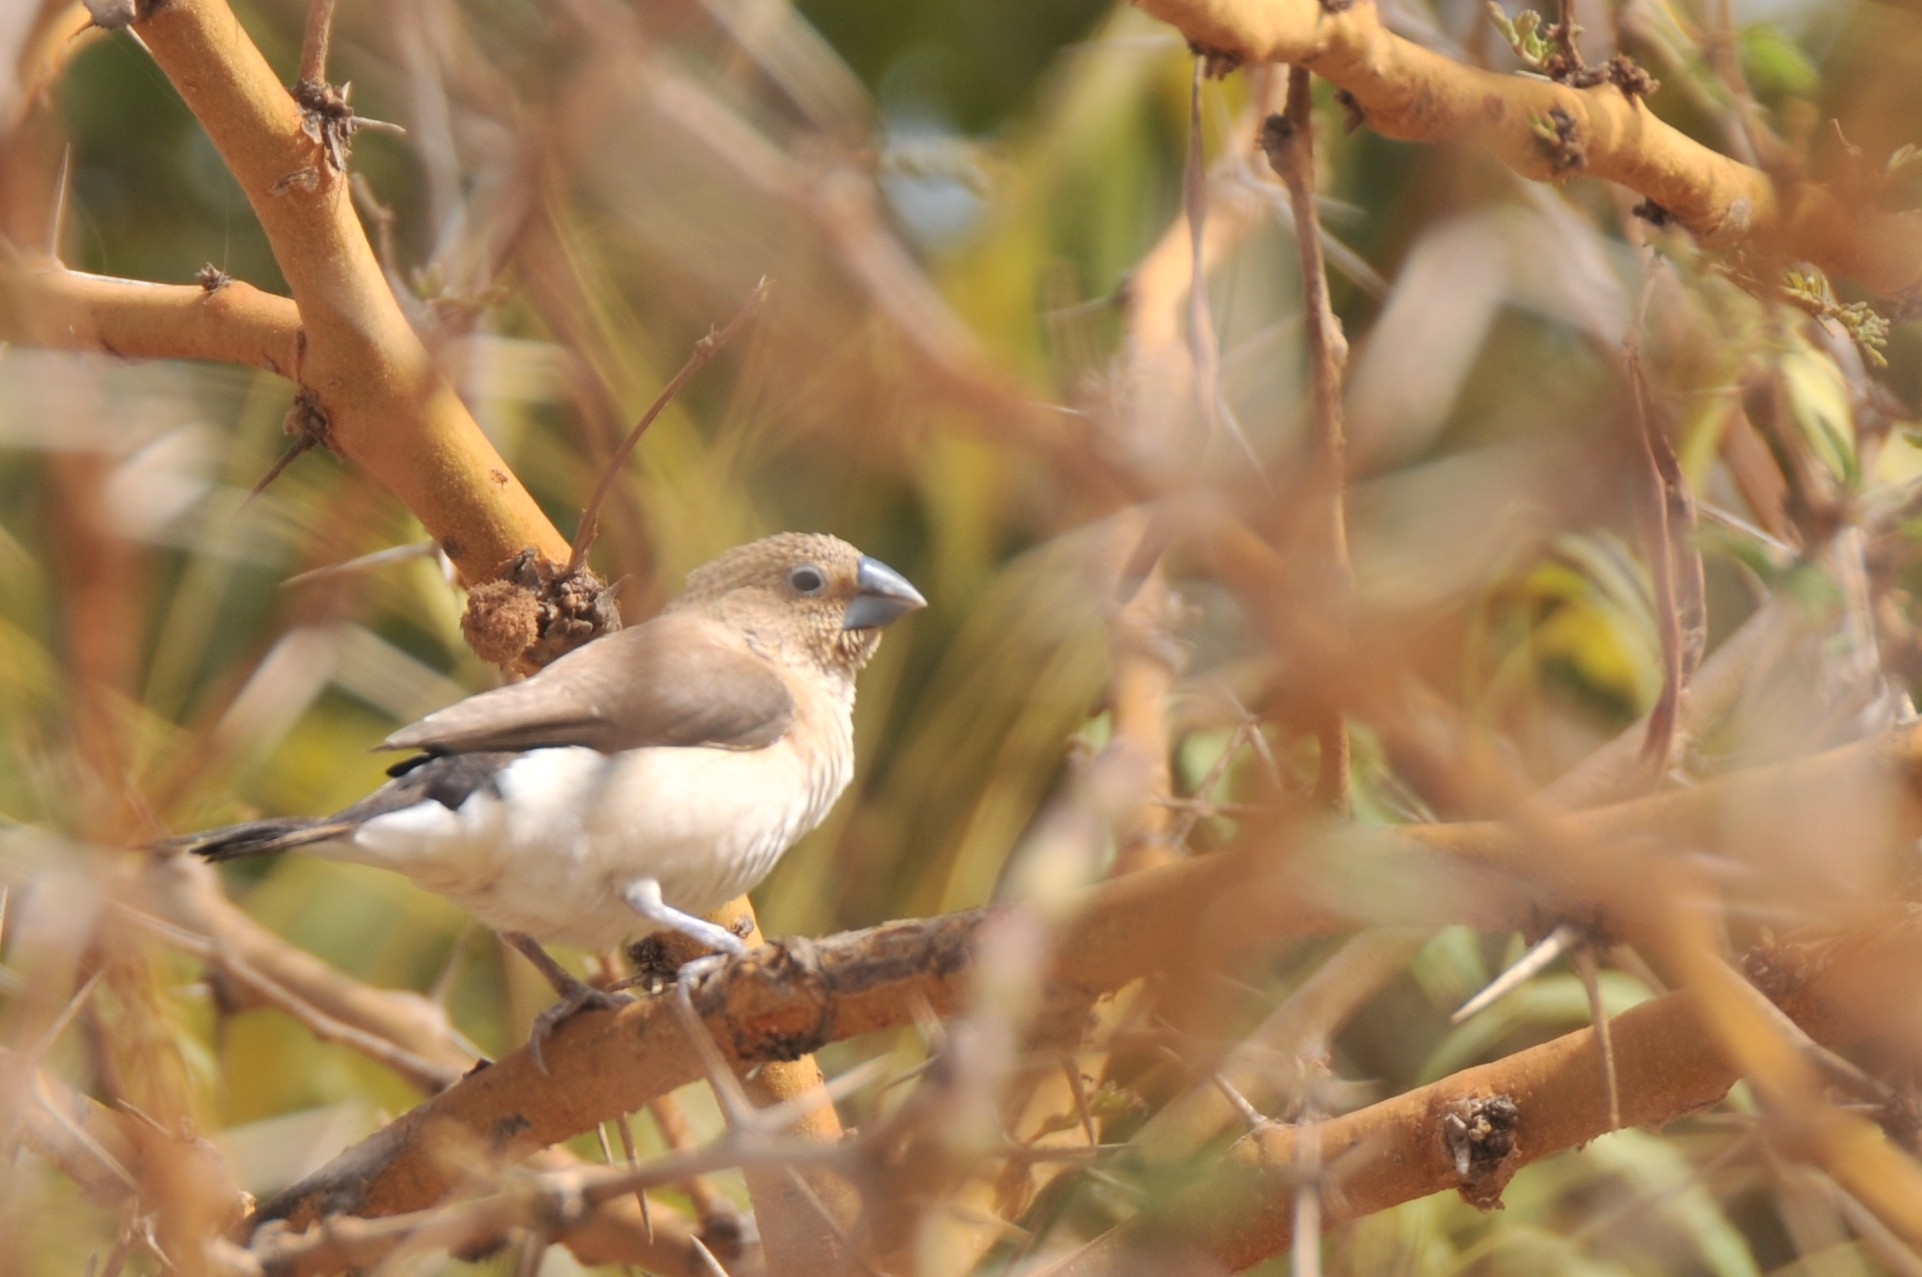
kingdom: Animalia
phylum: Chordata
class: Aves
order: Passeriformes
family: Estrildidae
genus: Euodice
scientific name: Euodice cantans
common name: African silverbill
